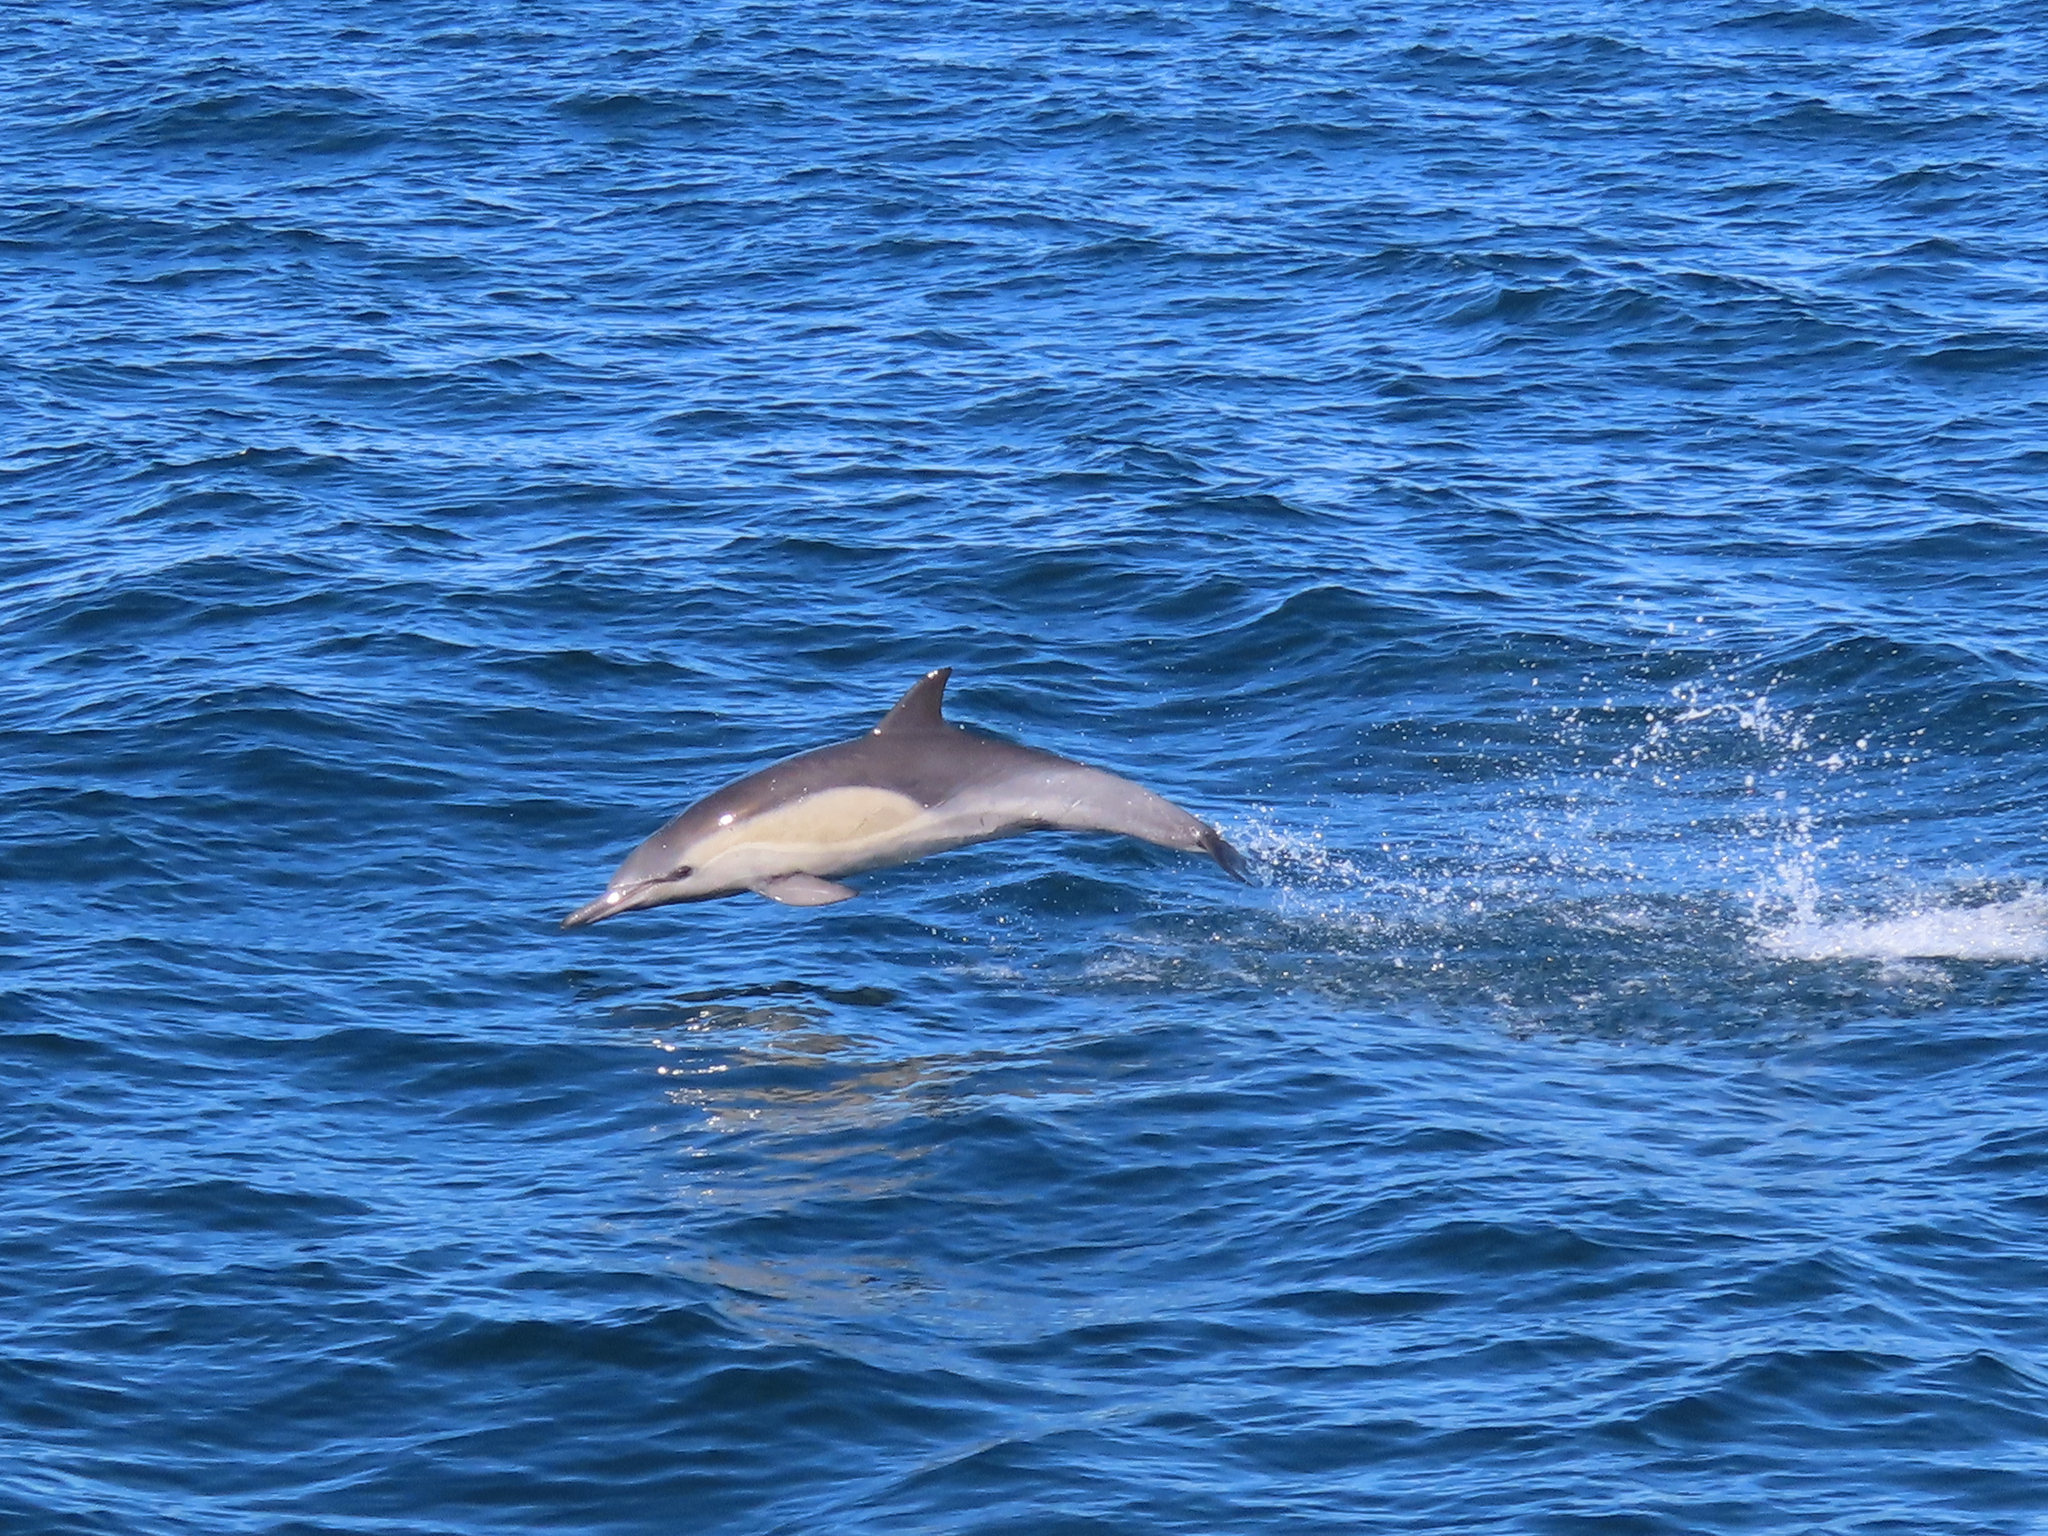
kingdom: Animalia
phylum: Chordata
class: Mammalia
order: Cetacea
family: Delphinidae
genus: Delphinus
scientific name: Delphinus delphis
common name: Common dolphin
